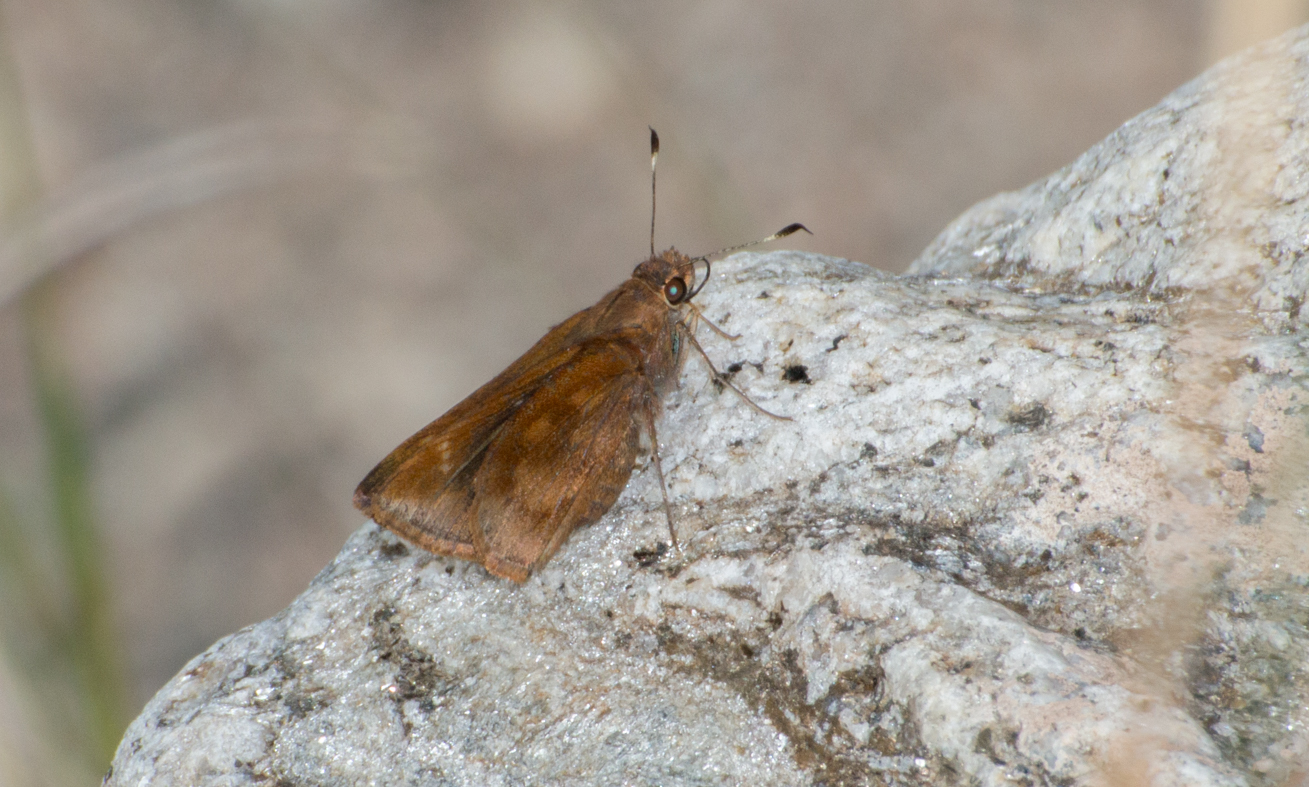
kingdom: Animalia
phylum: Arthropoda
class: Insecta
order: Lepidoptera
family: Hesperiidae
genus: Quinta
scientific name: Quinta cannae
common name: Canna skipper
